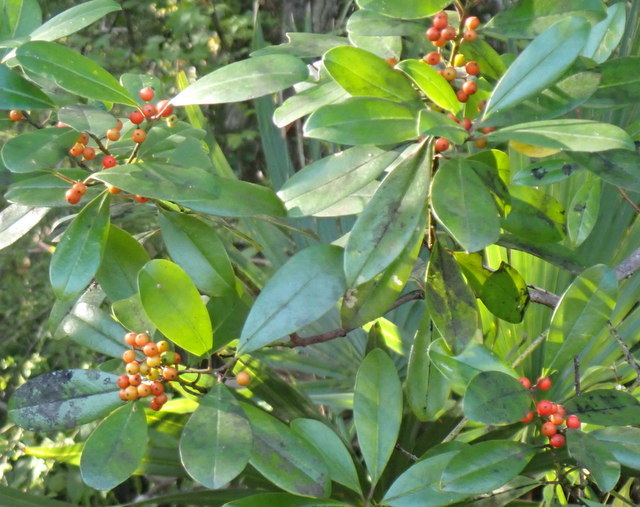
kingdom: Plantae
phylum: Tracheophyta
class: Magnoliopsida
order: Aquifoliales
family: Aquifoliaceae
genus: Ilex
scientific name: Ilex cassine
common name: Dahoon
